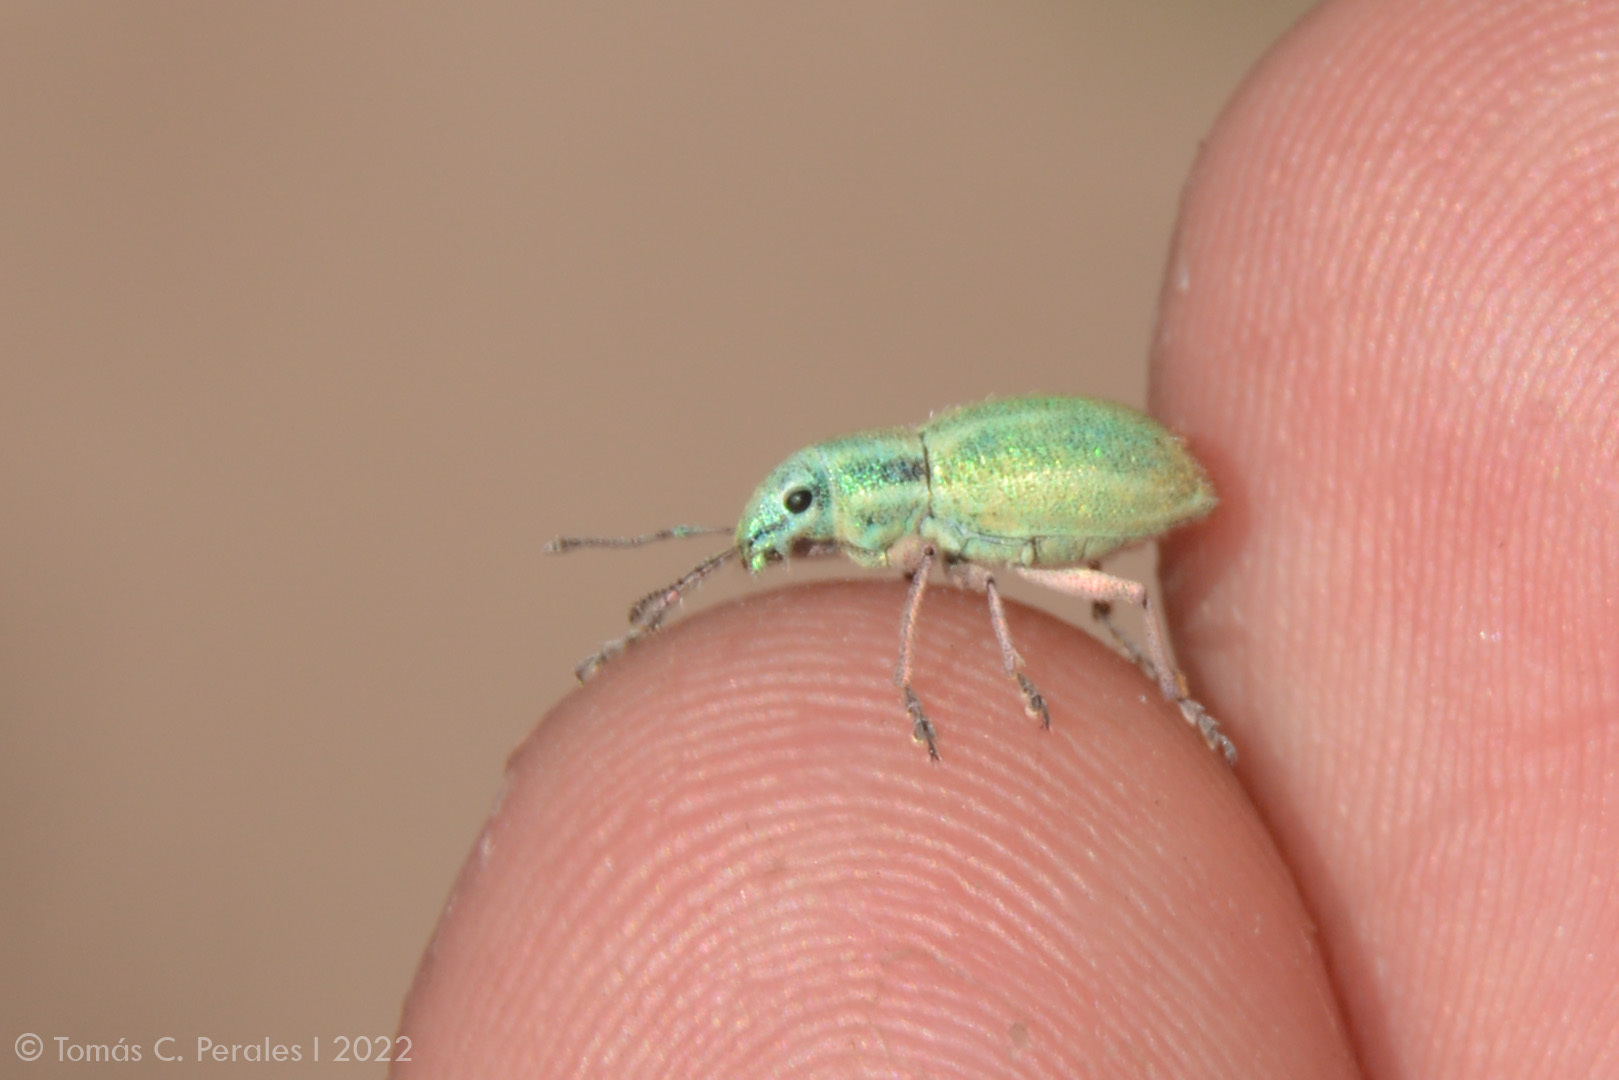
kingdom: Animalia
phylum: Arthropoda
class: Insecta
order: Coleoptera
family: Curculionidae
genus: Naupactus
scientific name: Naupactus auripes
